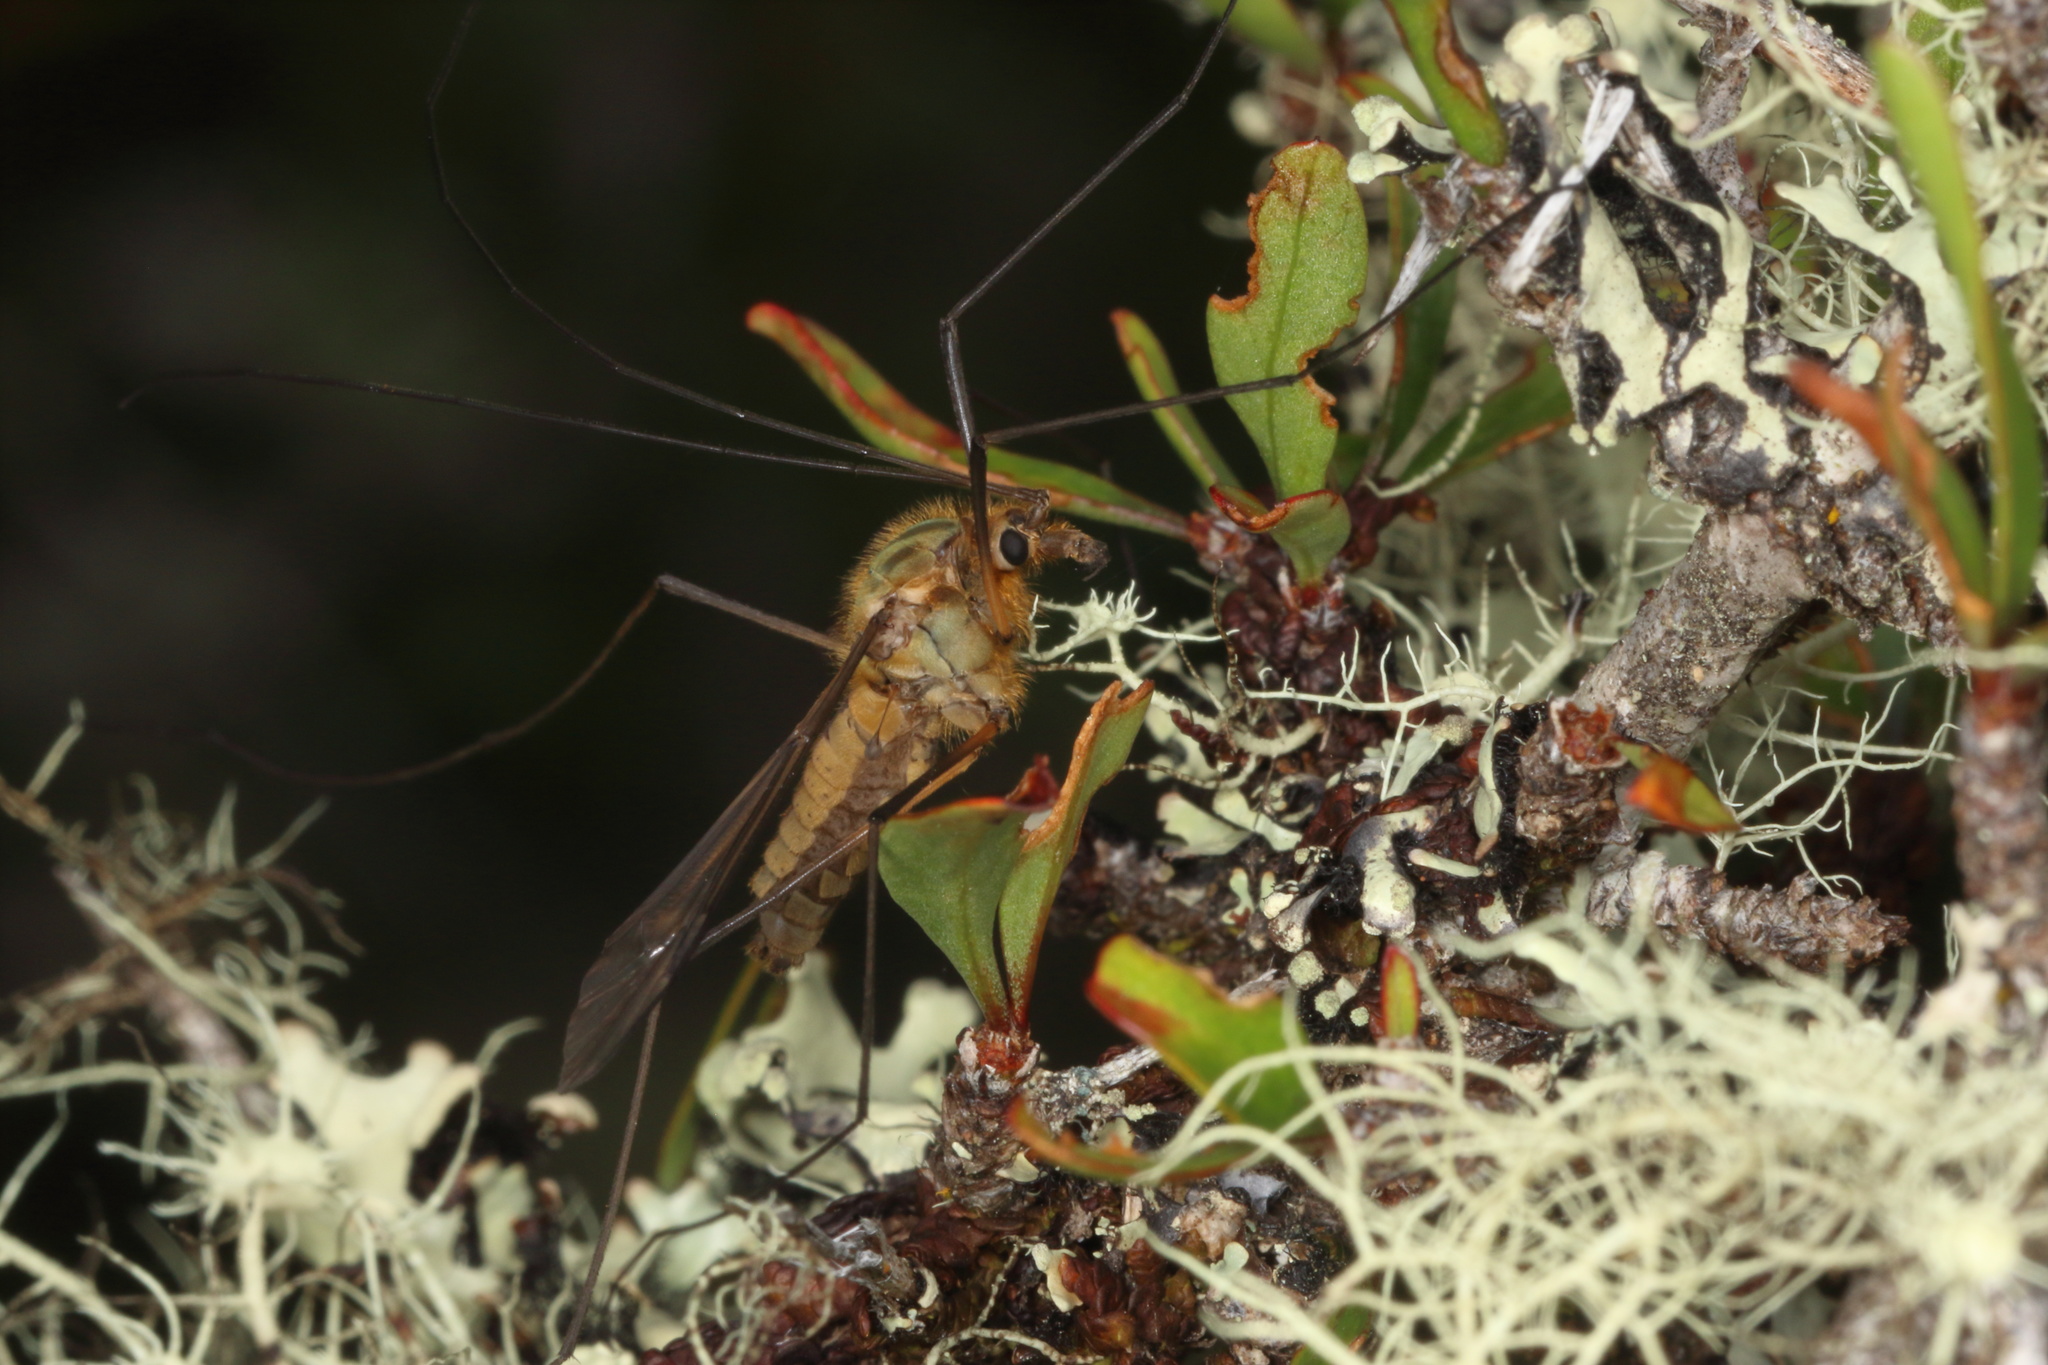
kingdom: Animalia
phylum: Arthropoda
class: Insecta
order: Diptera
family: Tipulidae
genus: Leptotarsus
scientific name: Leptotarsus vulpinus
